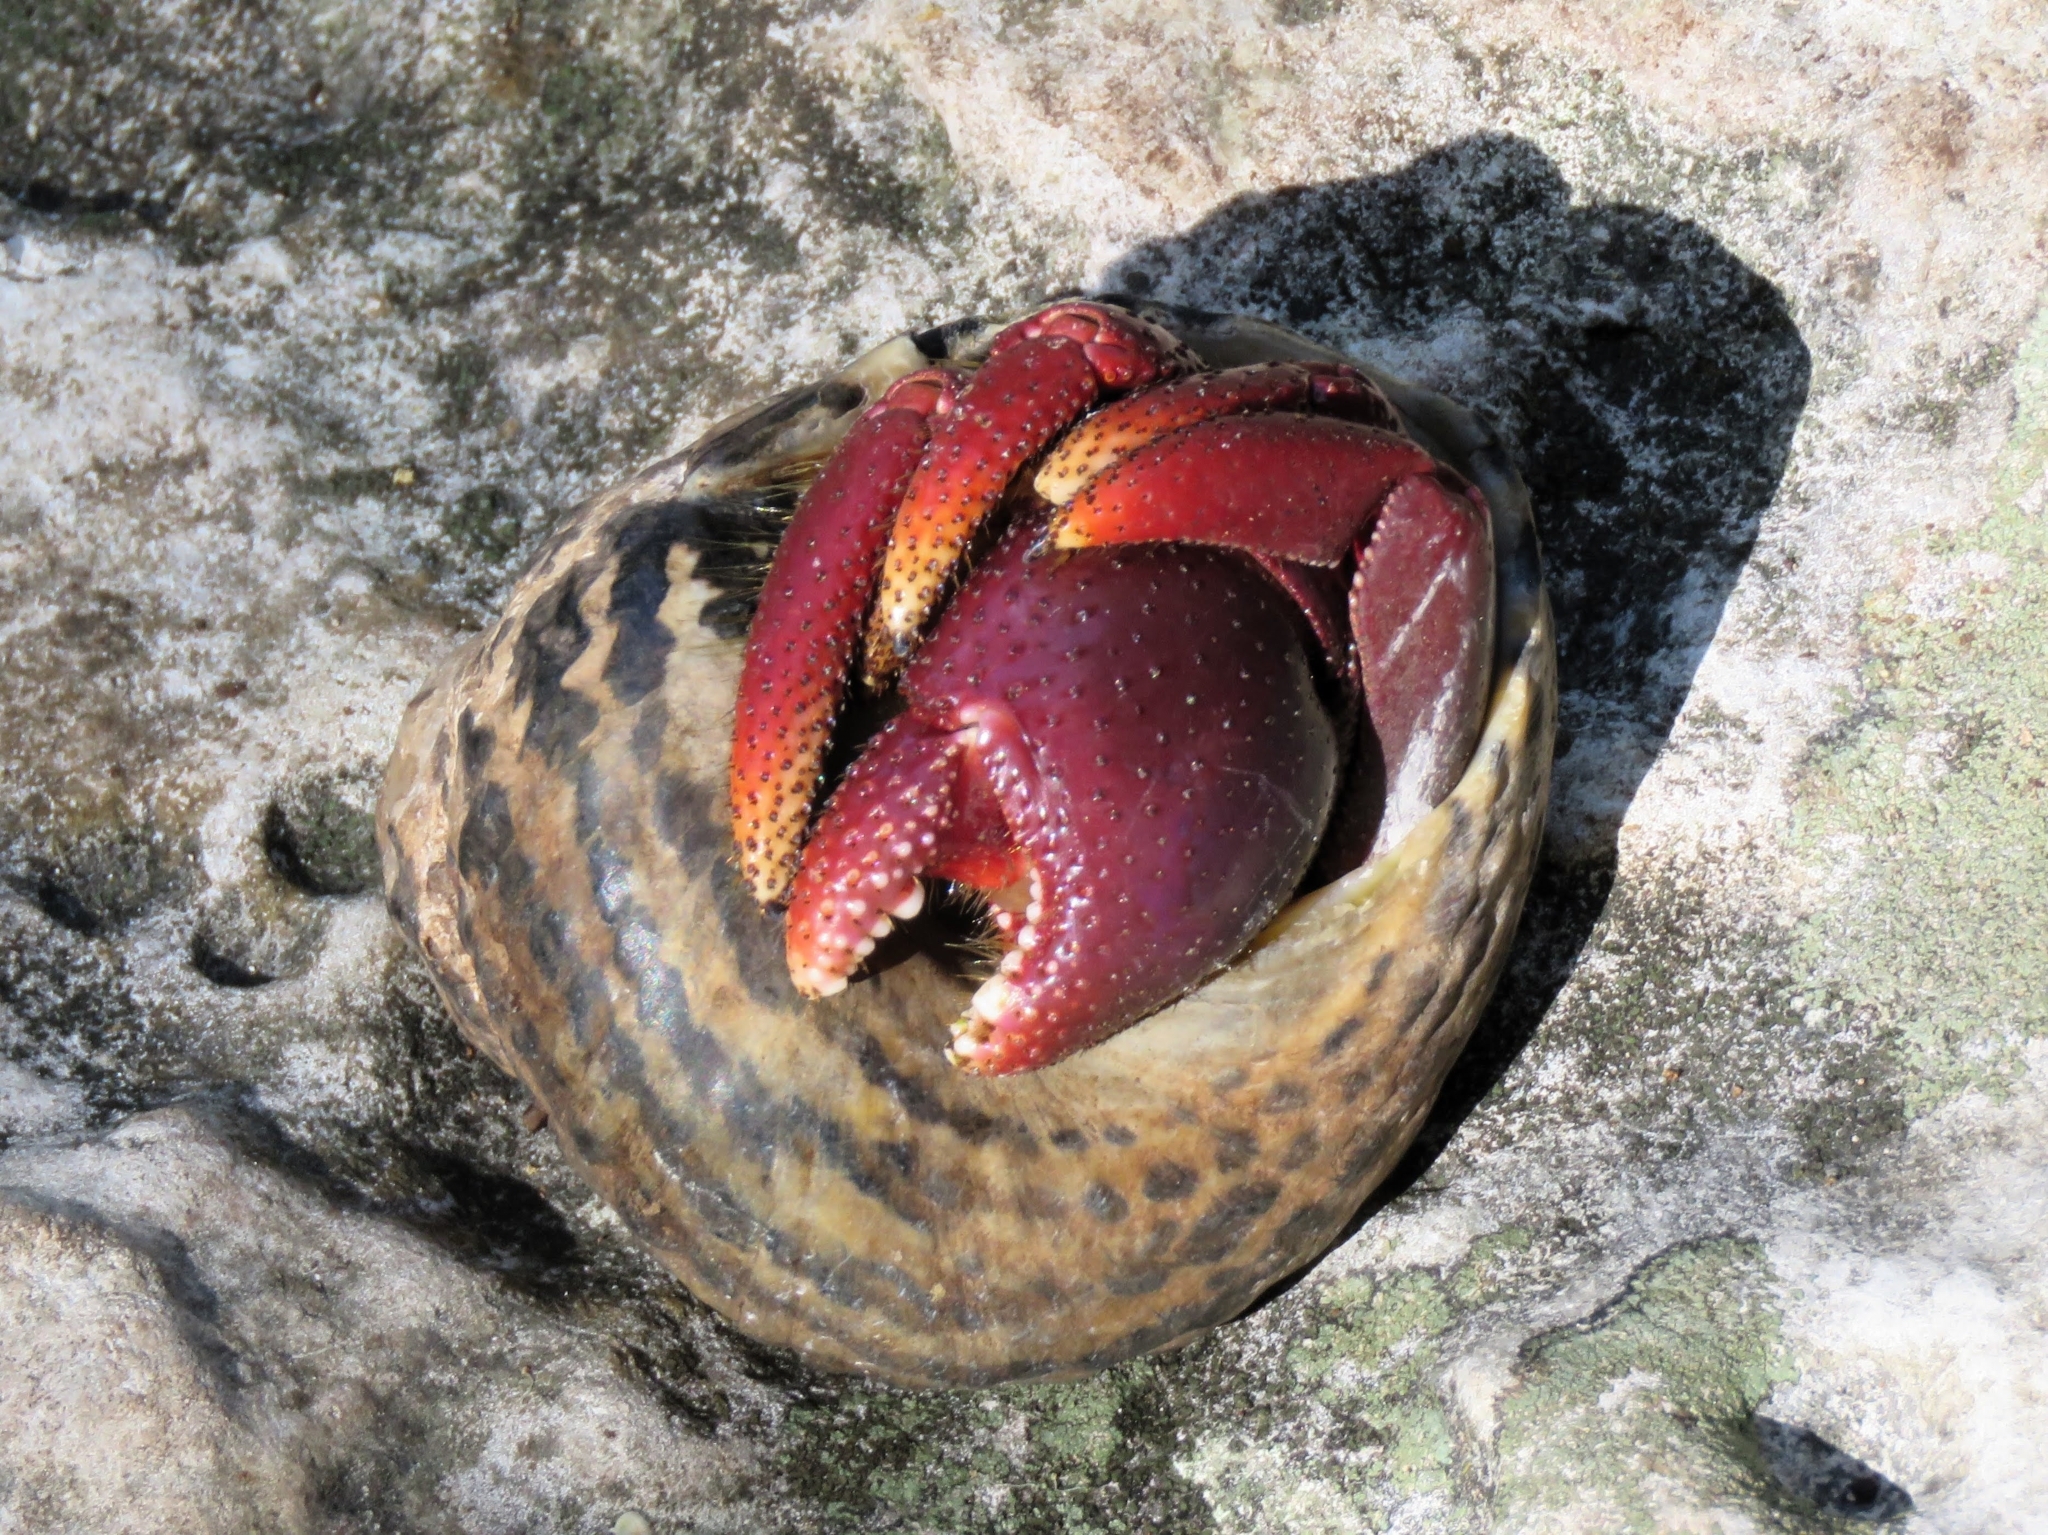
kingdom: Animalia
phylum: Arthropoda
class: Malacostraca
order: Decapoda
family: Coenobitidae
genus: Coenobita
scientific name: Coenobita clypeatus
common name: Caribbean hermit crab
